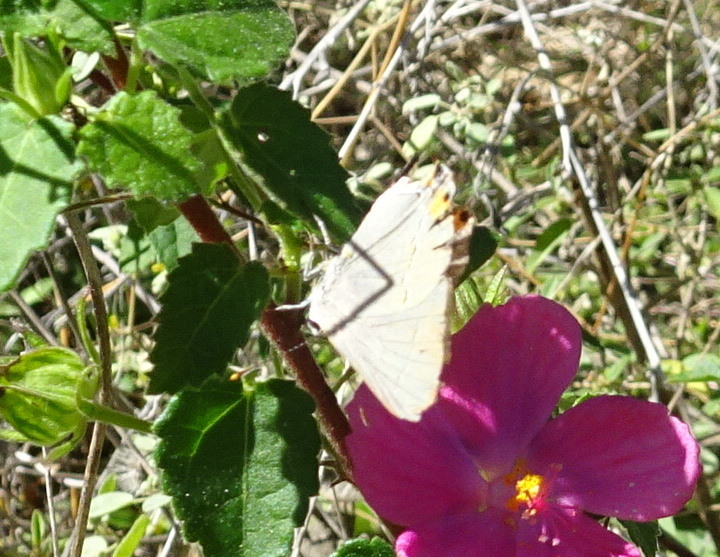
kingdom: Animalia
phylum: Arthropoda
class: Insecta
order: Lepidoptera
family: Lycaenidae
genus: Strymon
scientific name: Strymon melinus
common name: Gray hairstreak
